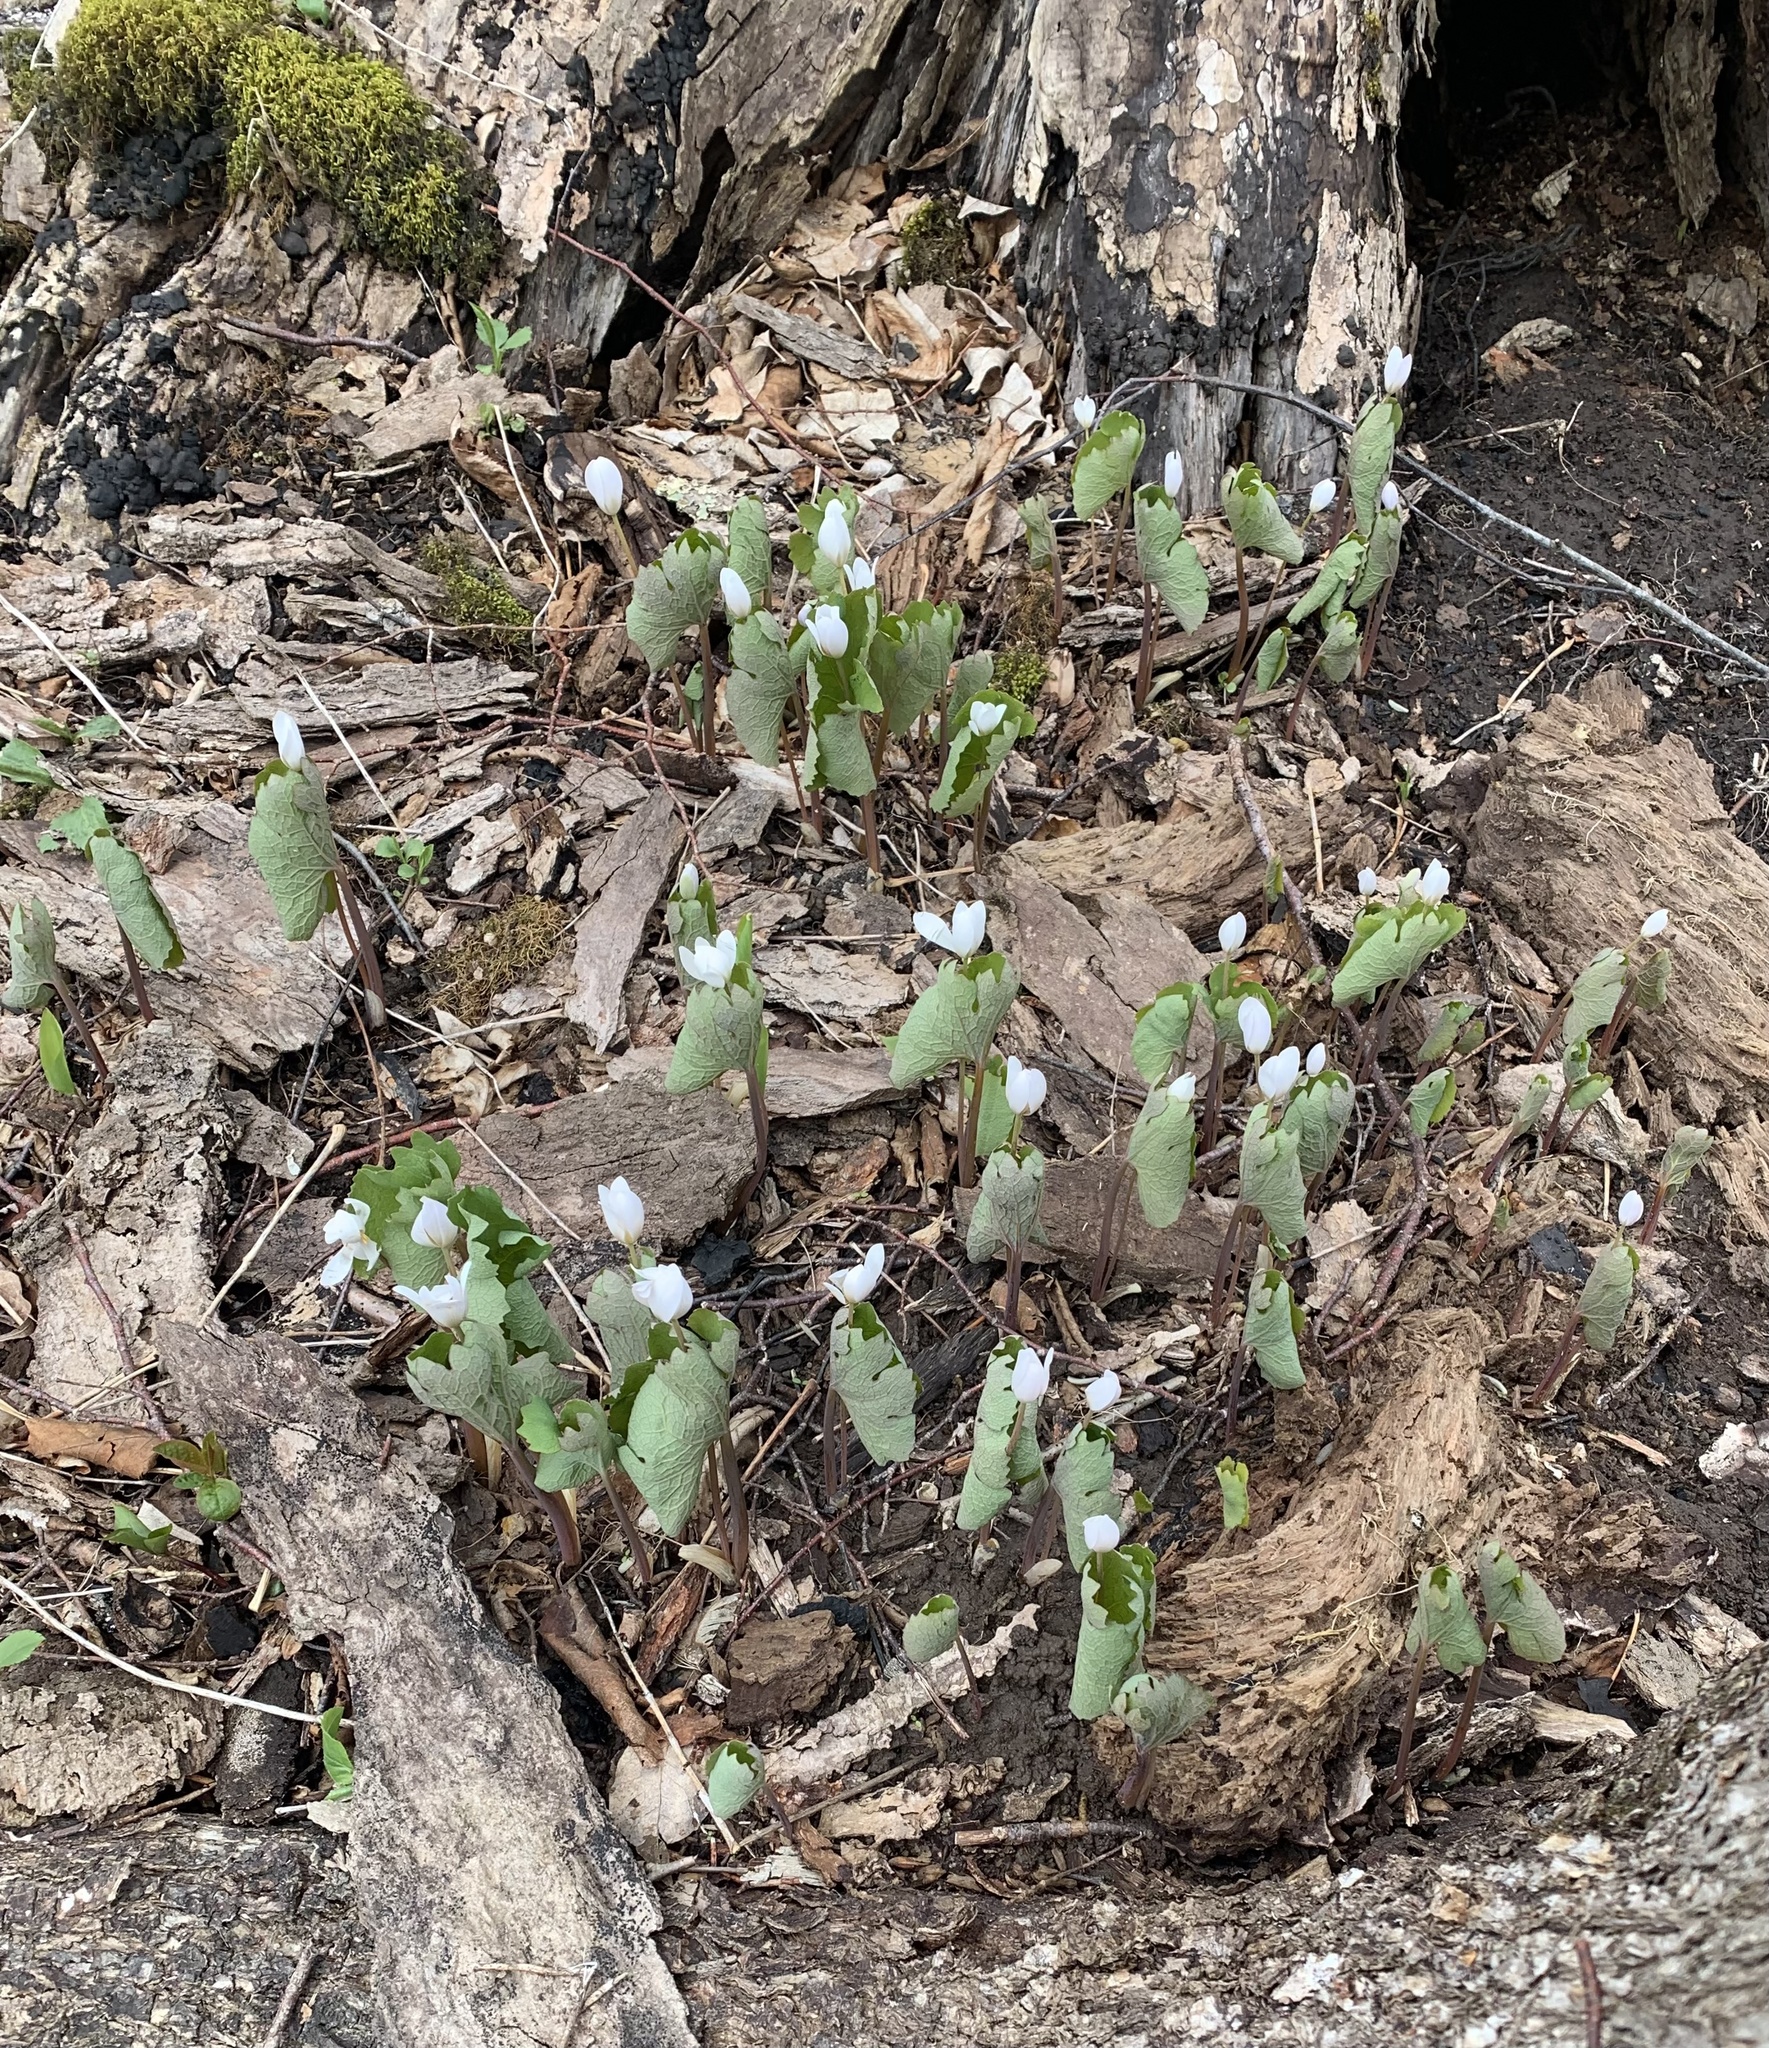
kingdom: Plantae
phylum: Tracheophyta
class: Magnoliopsida
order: Ranunculales
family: Papaveraceae
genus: Sanguinaria
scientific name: Sanguinaria canadensis
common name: Bloodroot
